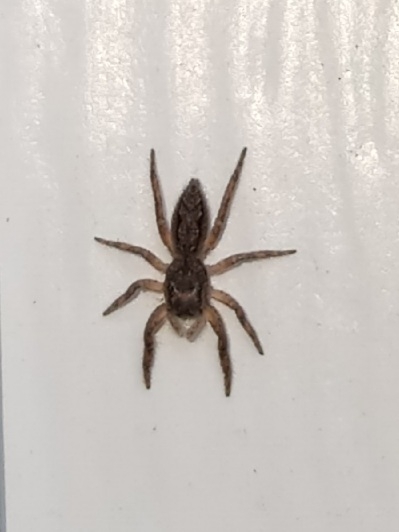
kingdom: Animalia
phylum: Arthropoda
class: Arachnida
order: Araneae
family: Salticidae
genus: Platycryptus
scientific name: Platycryptus undatus
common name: Tan jumping spider
